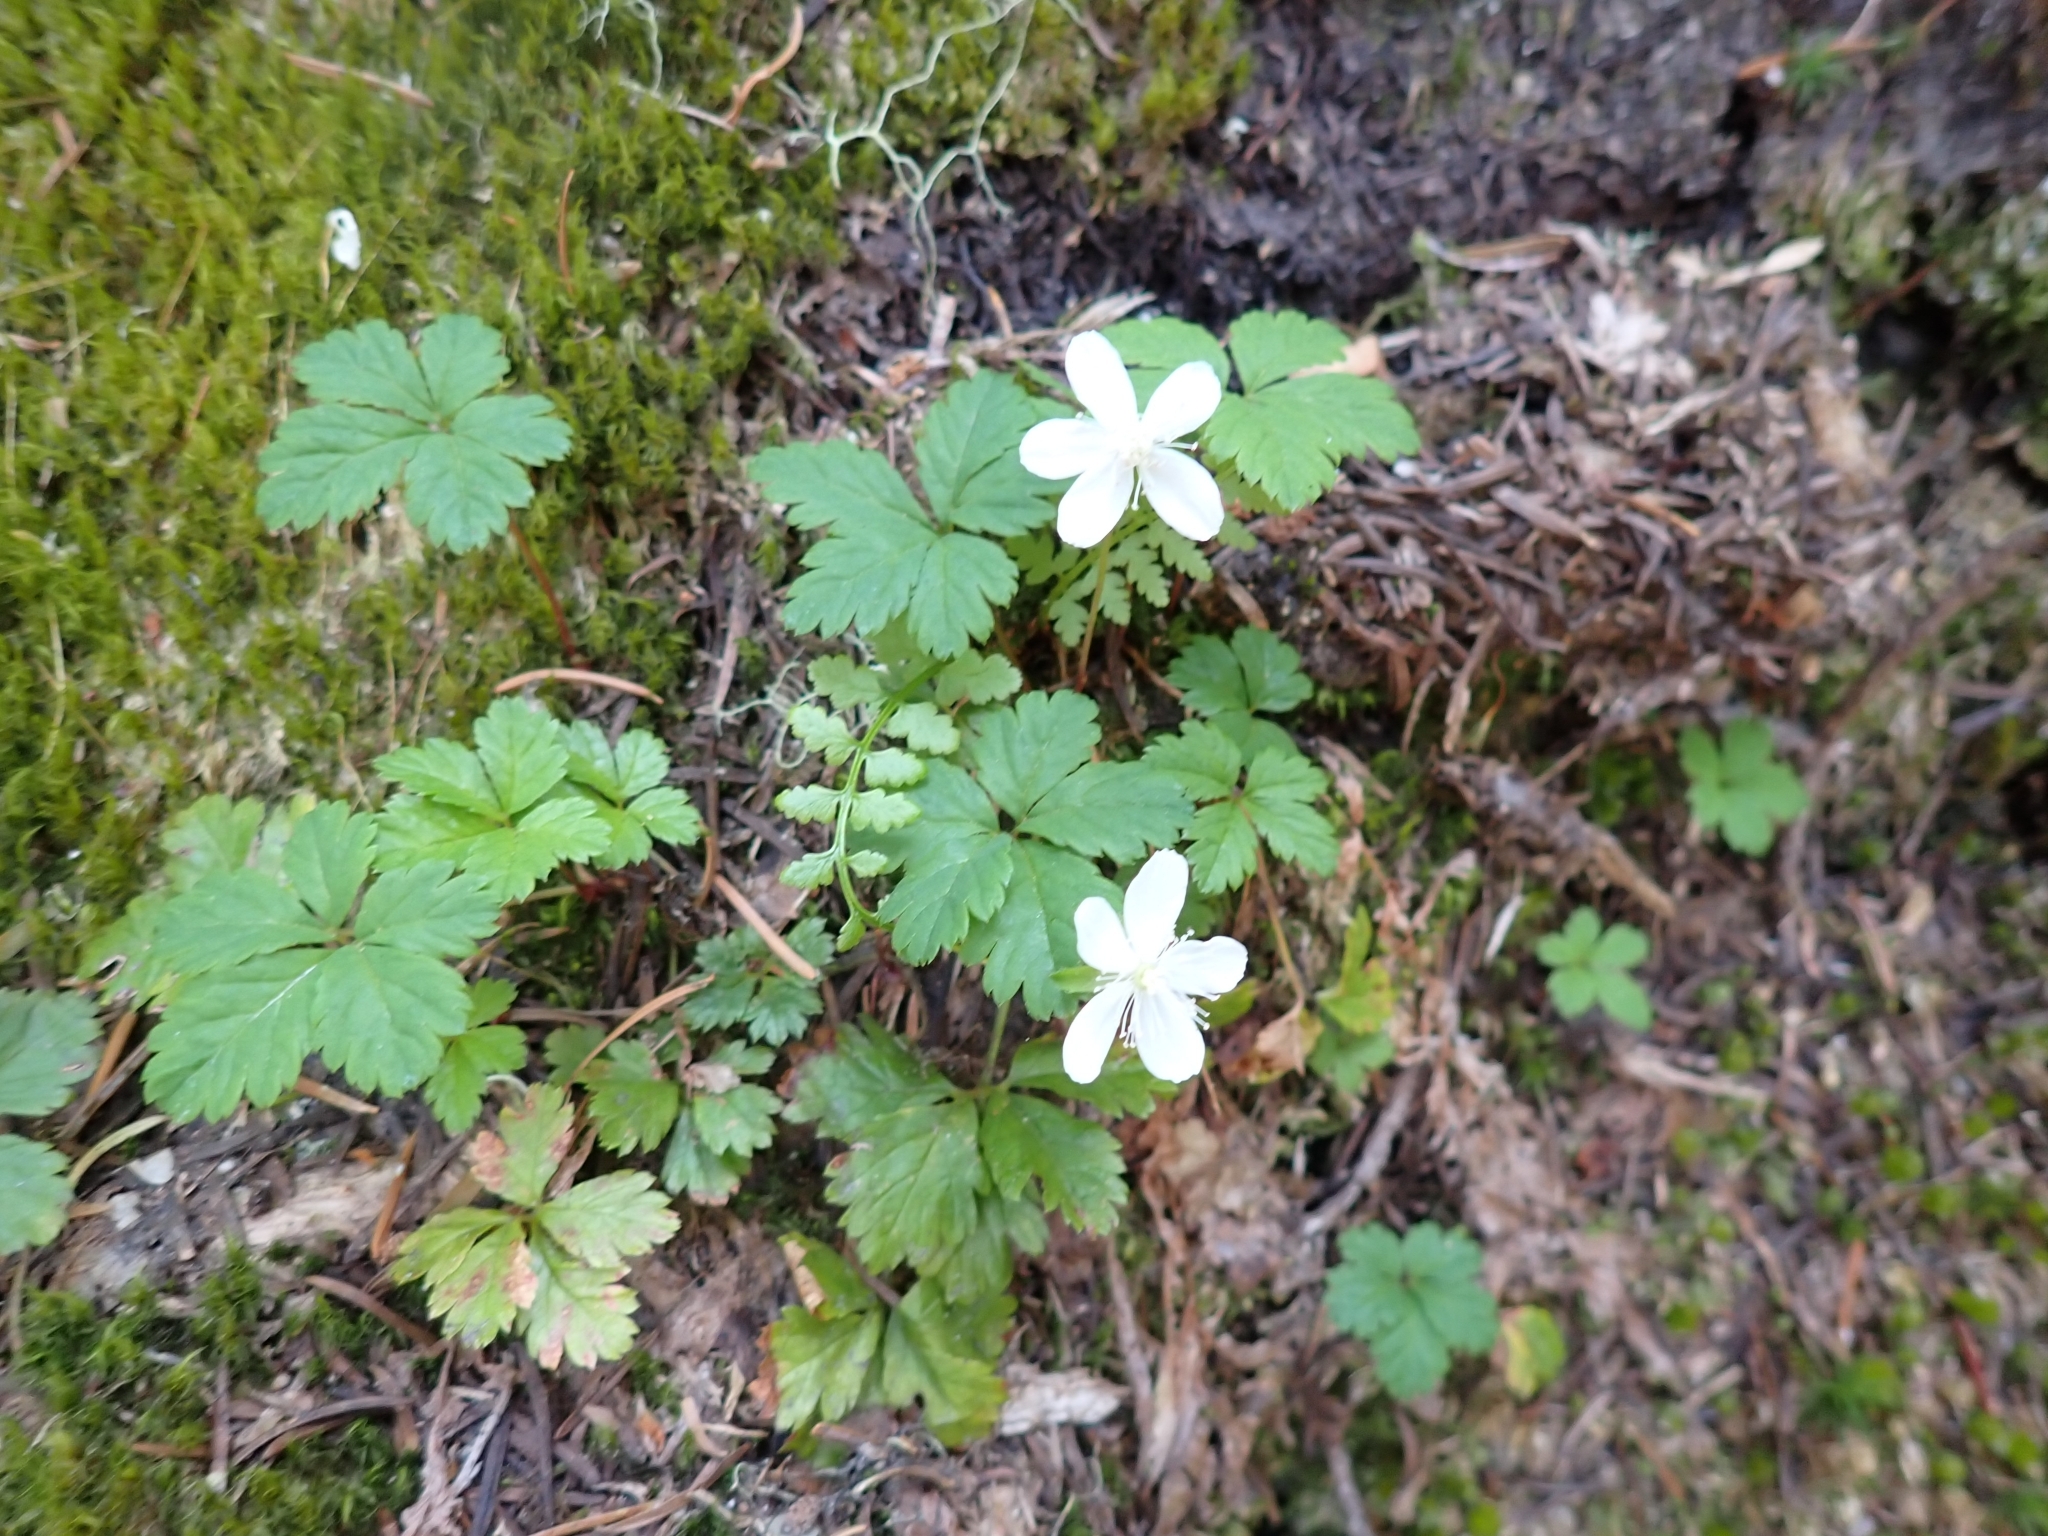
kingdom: Plantae
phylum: Tracheophyta
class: Magnoliopsida
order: Rosales
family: Rosaceae
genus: Rubus
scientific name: Rubus pedatus
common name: Creeping raspberry
